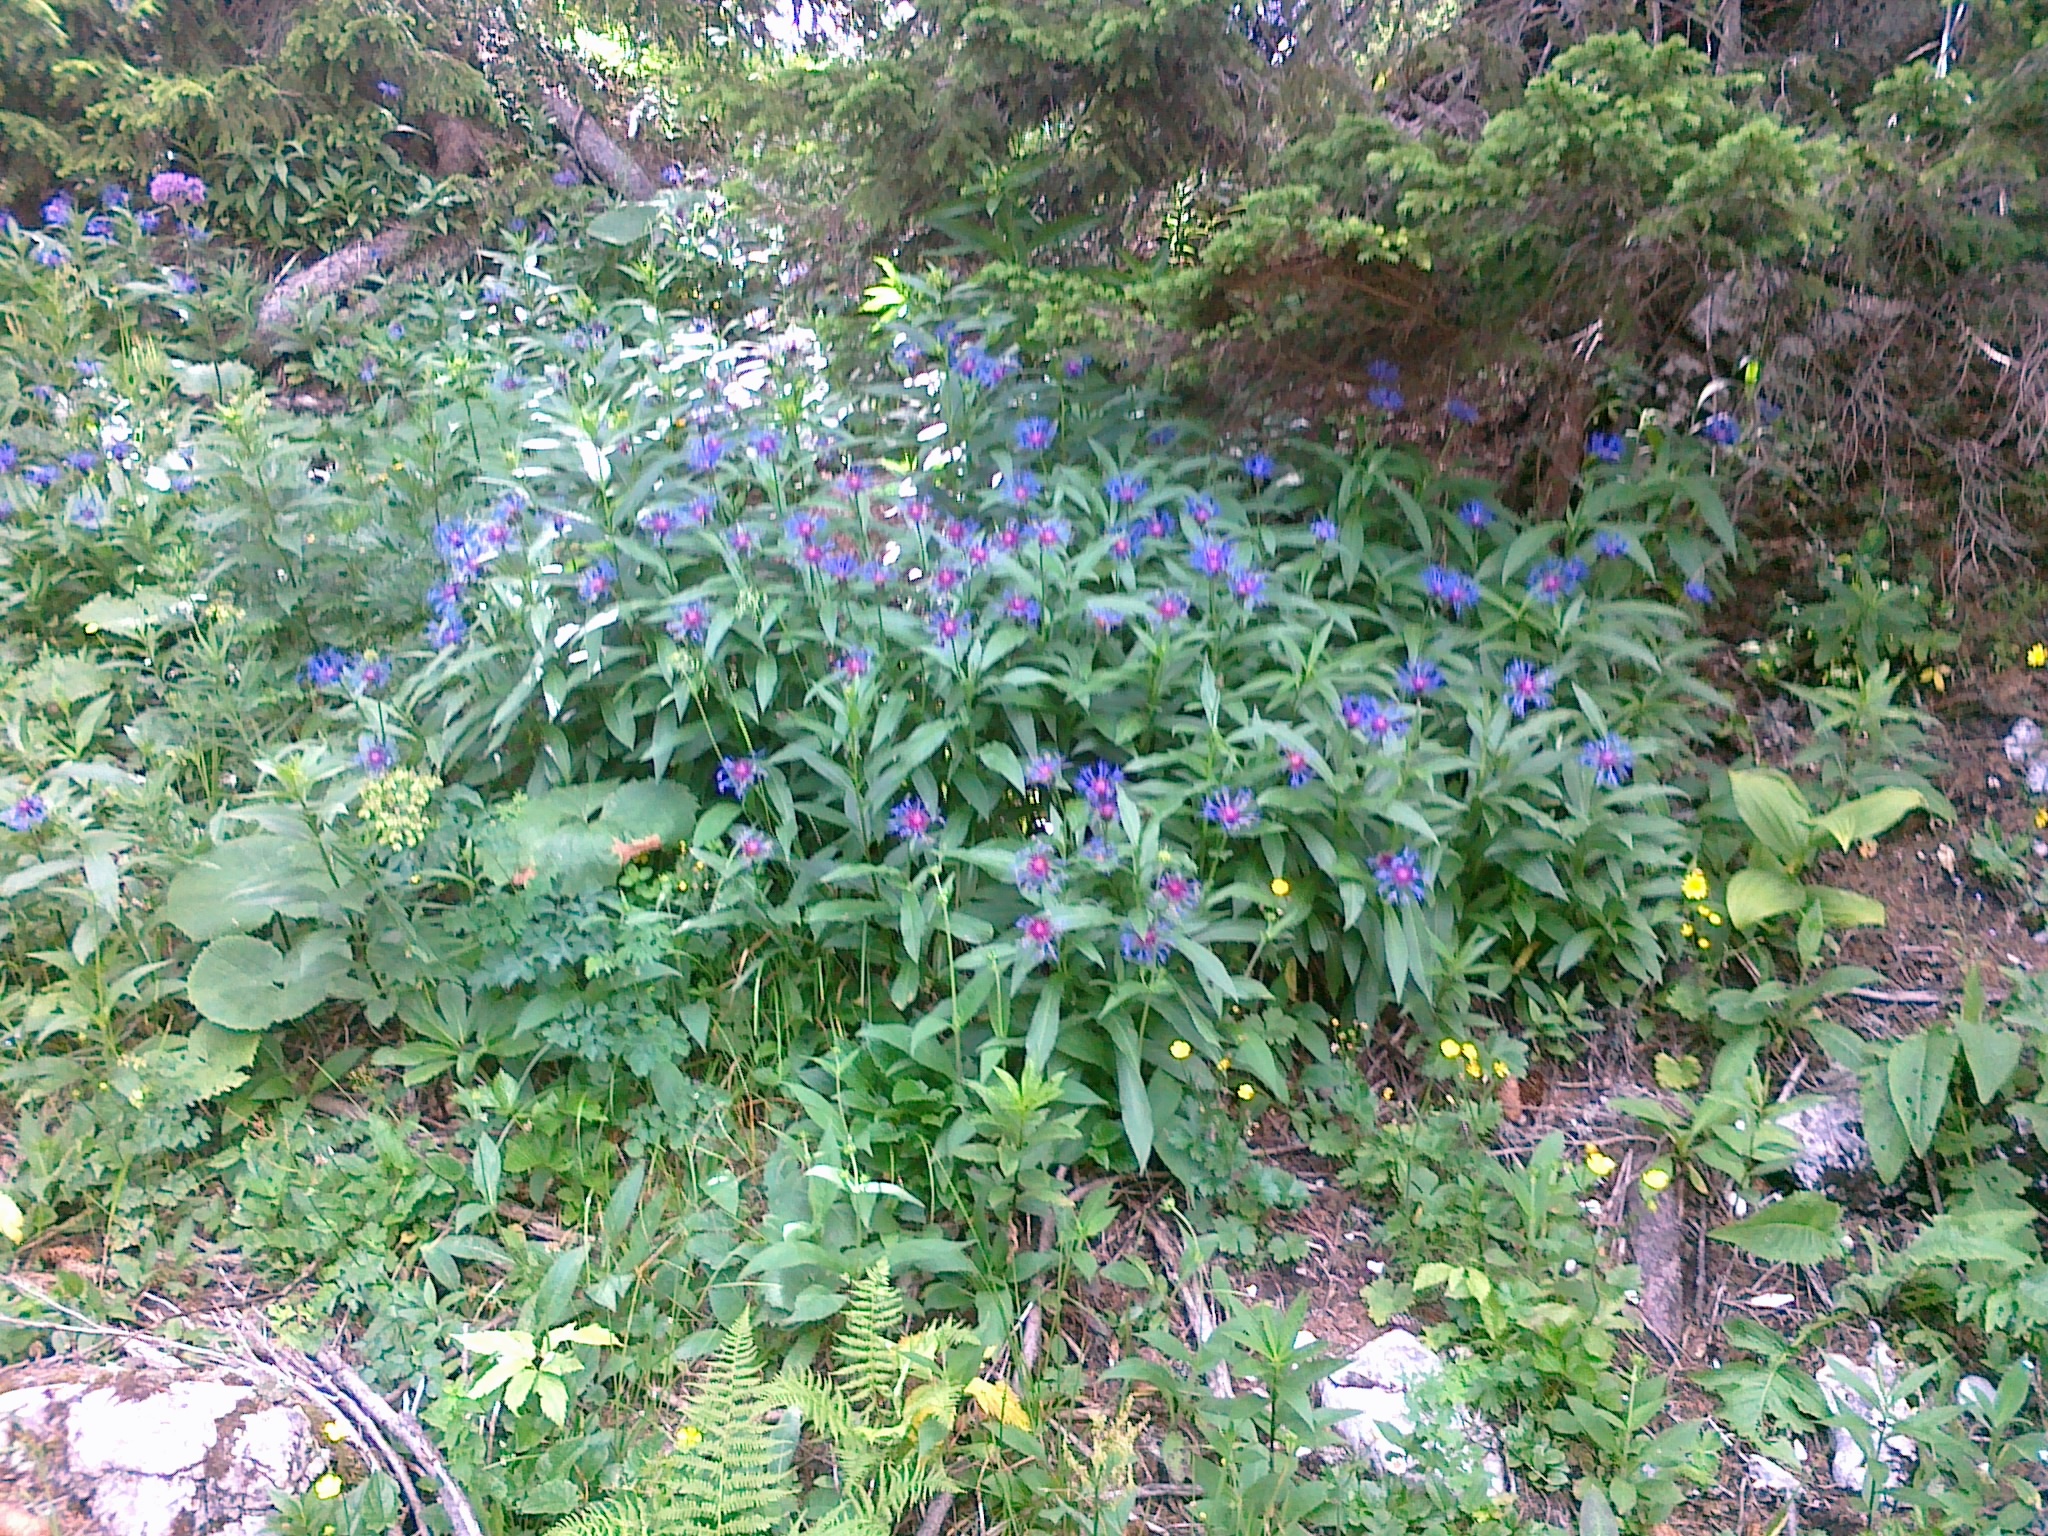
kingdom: Plantae
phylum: Tracheophyta
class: Magnoliopsida
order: Asterales
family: Asteraceae
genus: Centaurea
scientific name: Centaurea montana
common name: Perennial cornflower
